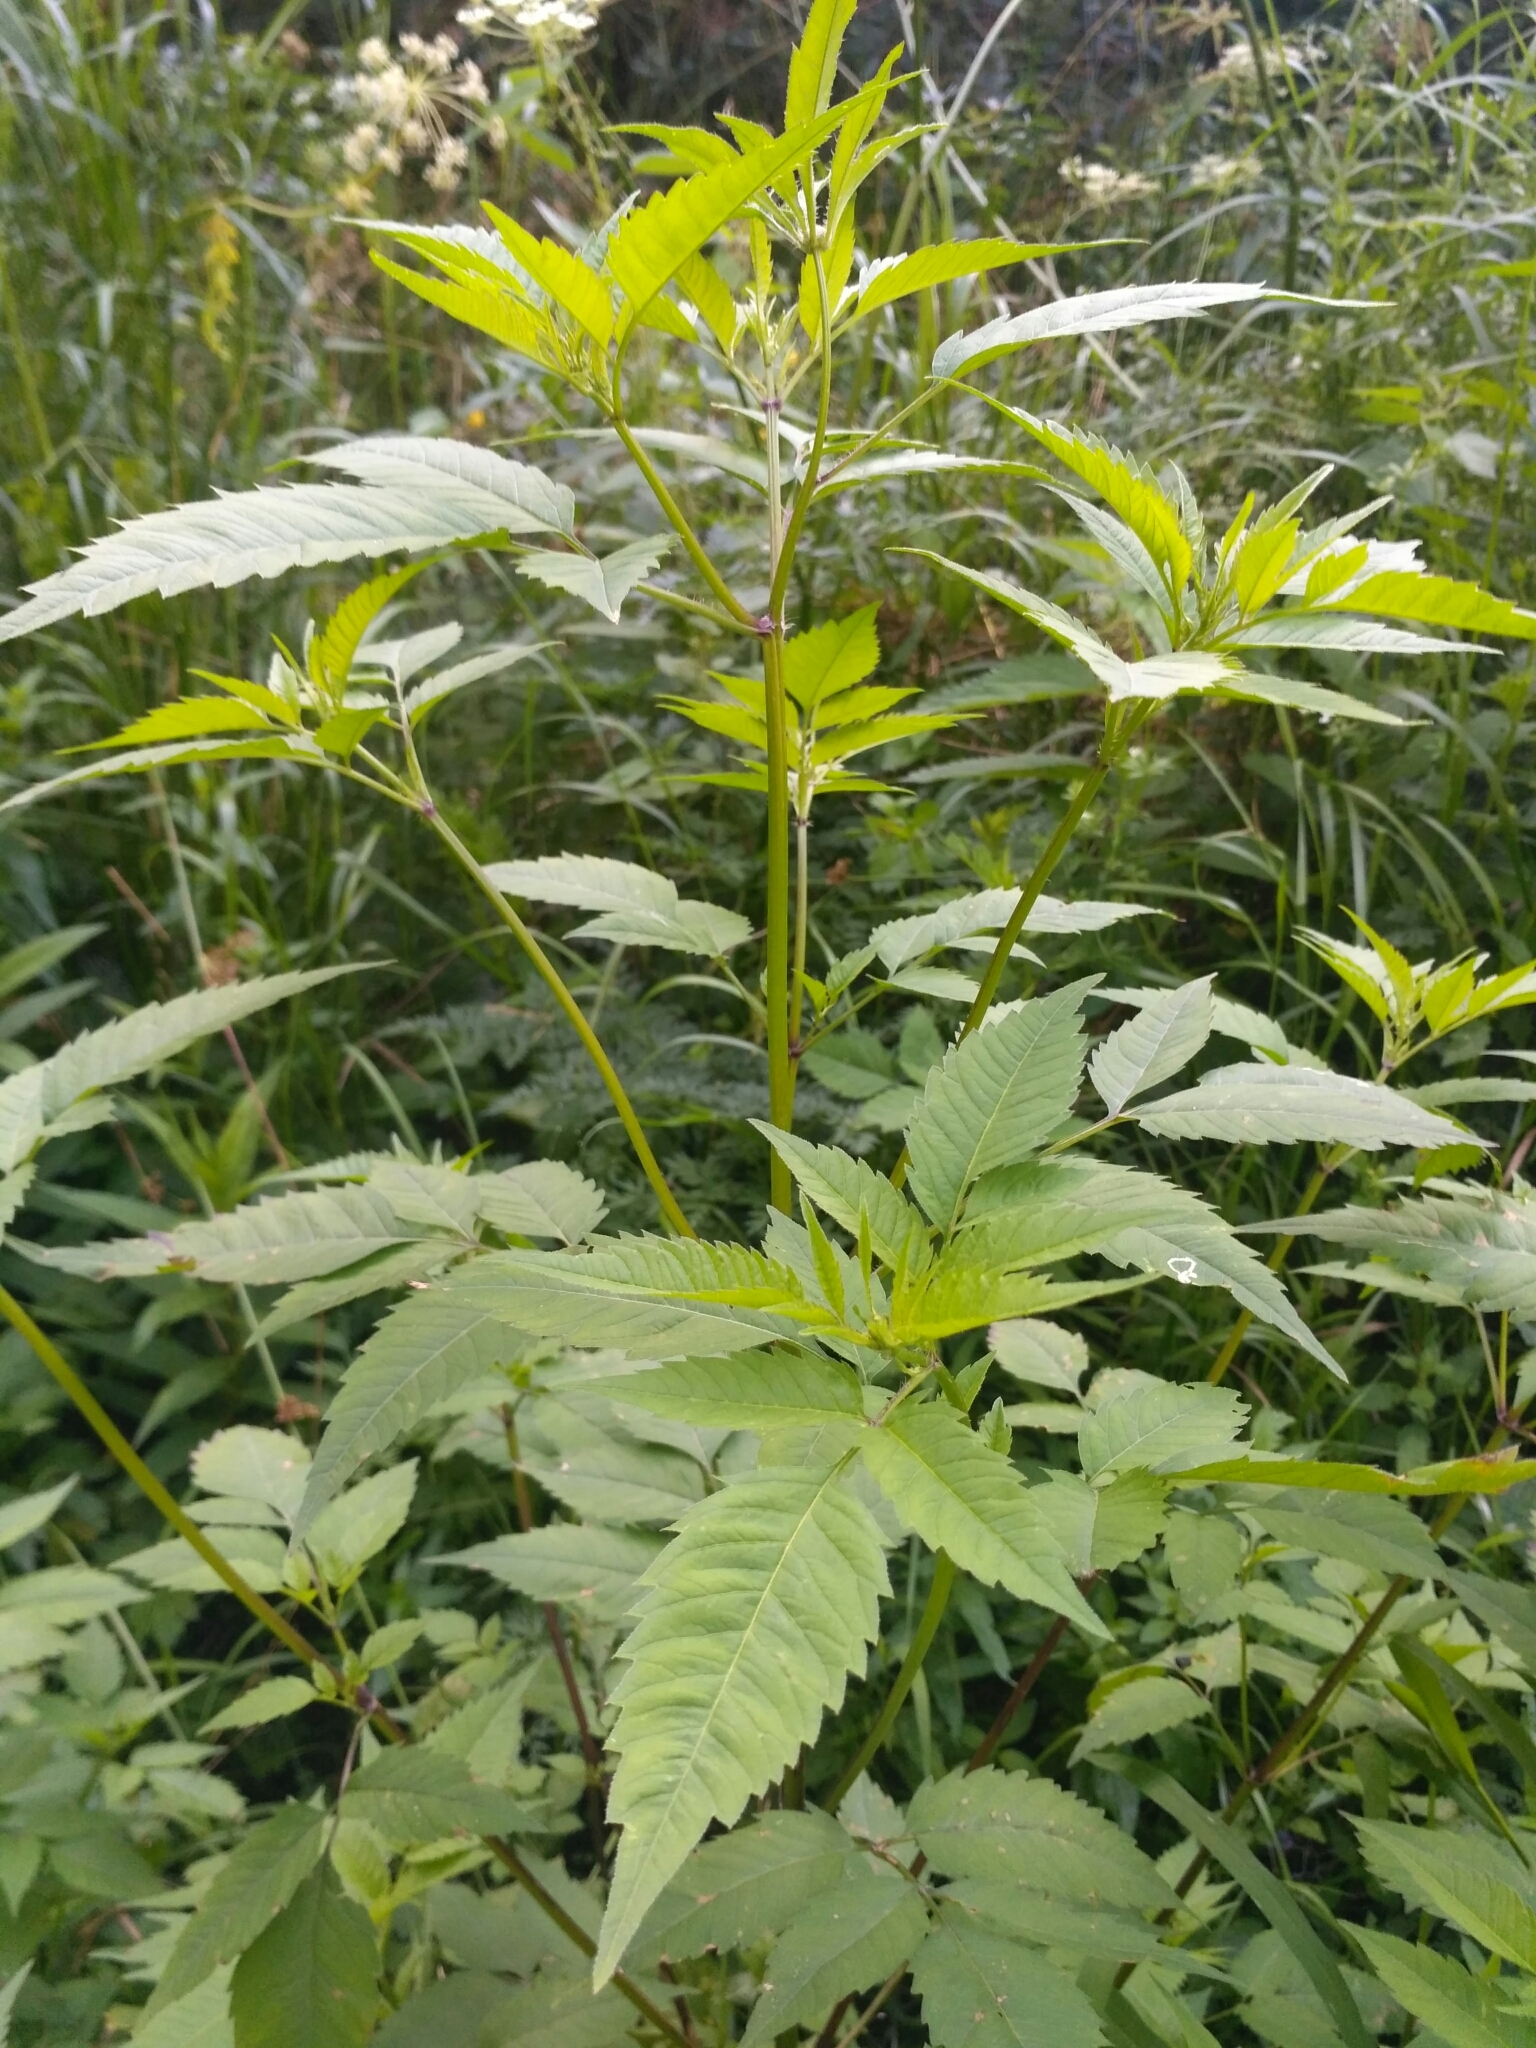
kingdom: Plantae
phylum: Tracheophyta
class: Magnoliopsida
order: Asterales
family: Asteraceae
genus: Bidens
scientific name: Bidens frondosa
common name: Beggarticks
